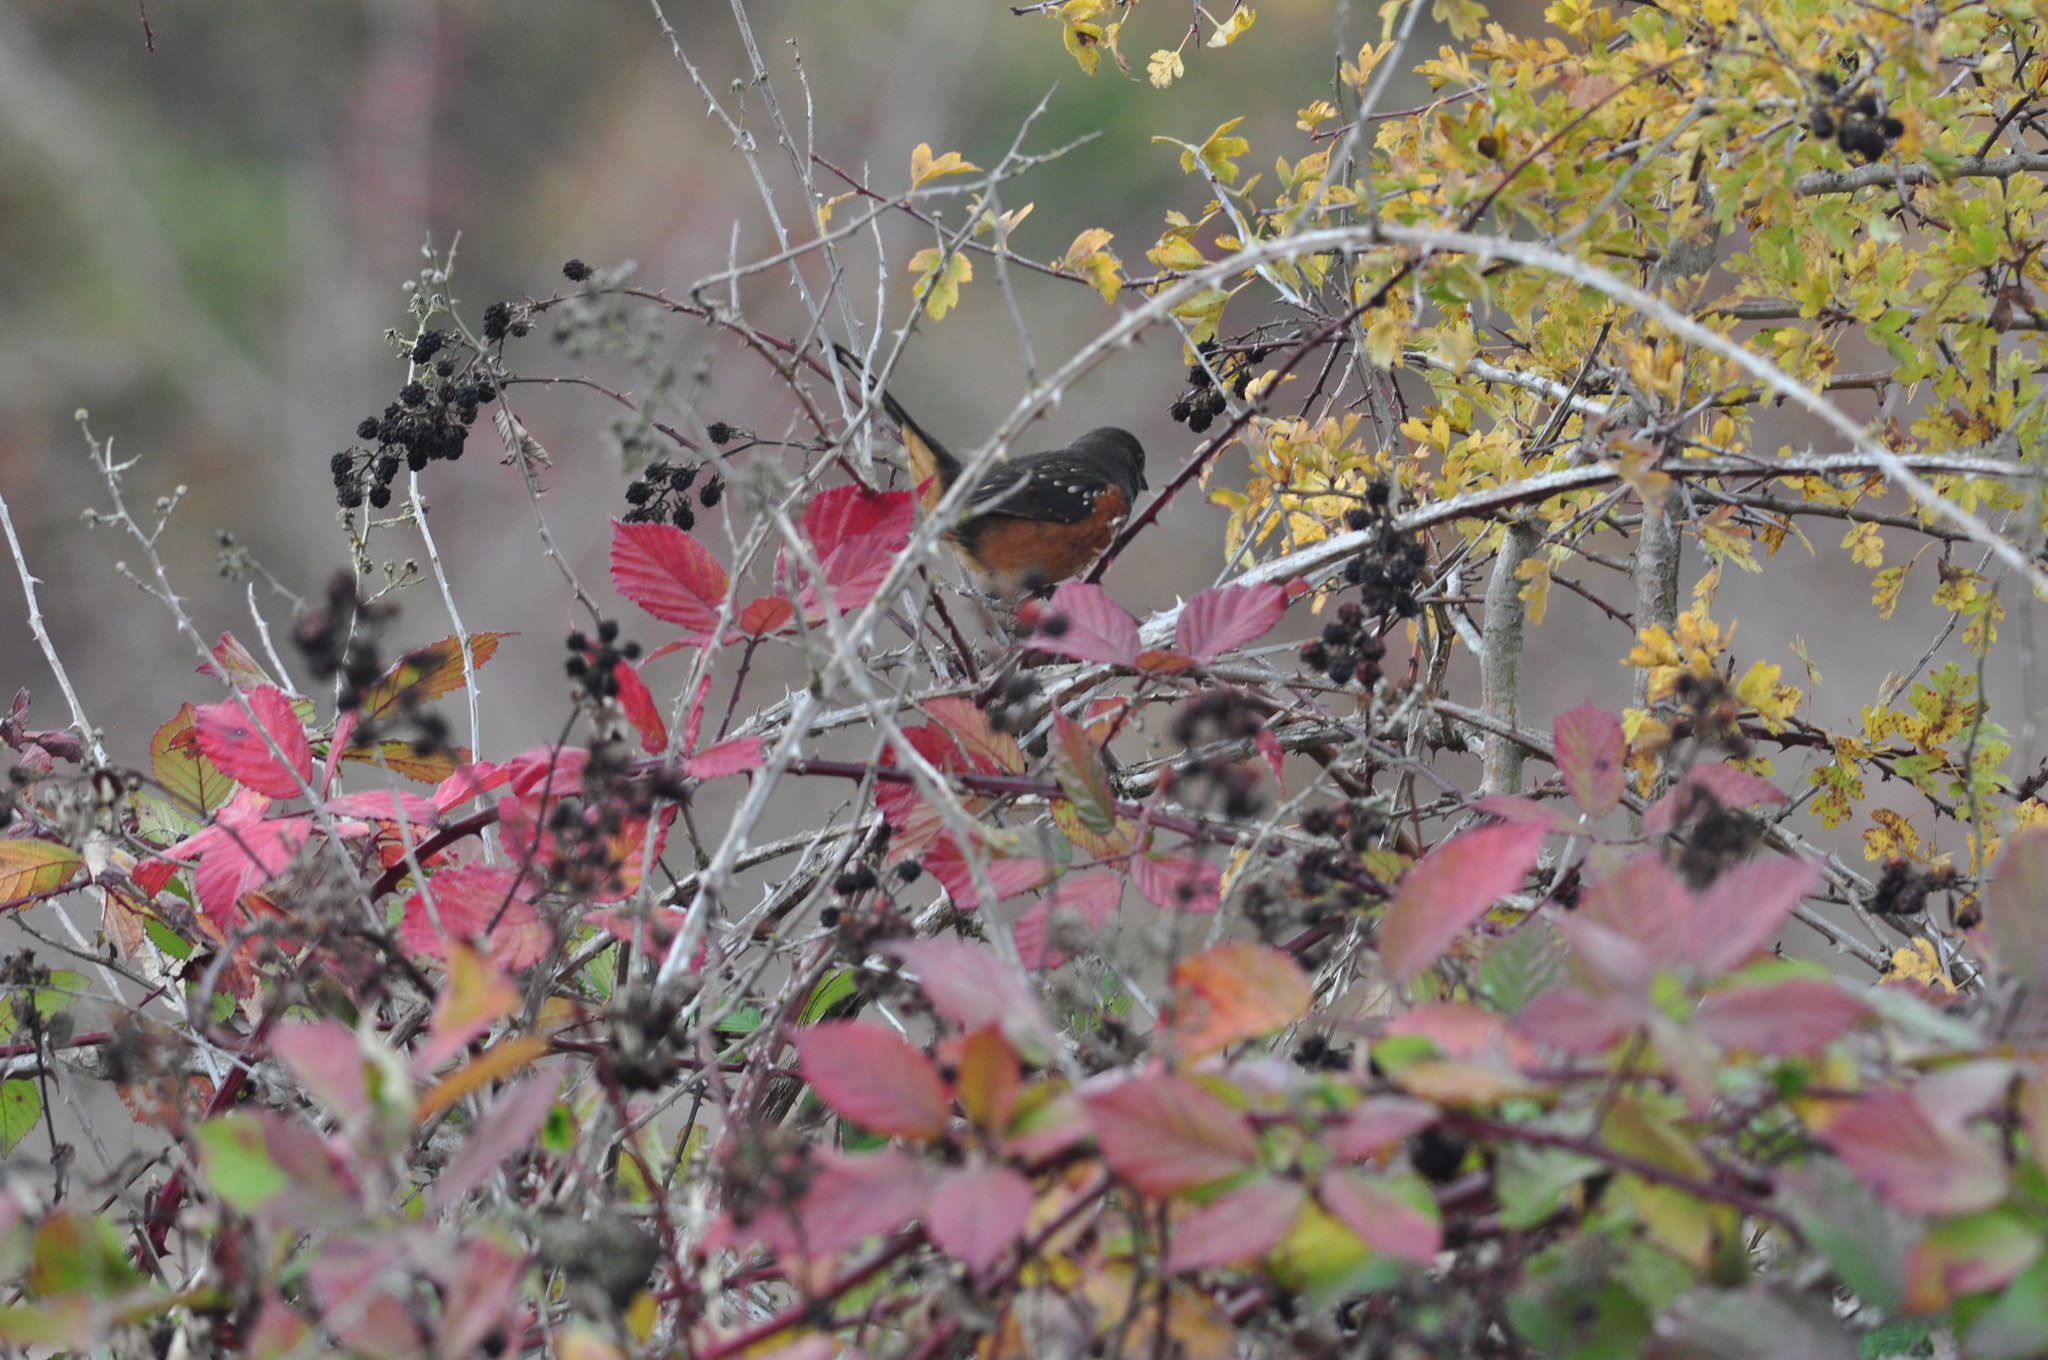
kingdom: Animalia
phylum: Chordata
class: Aves
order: Passeriformes
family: Passerellidae
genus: Pipilo
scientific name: Pipilo maculatus
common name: Spotted towhee
